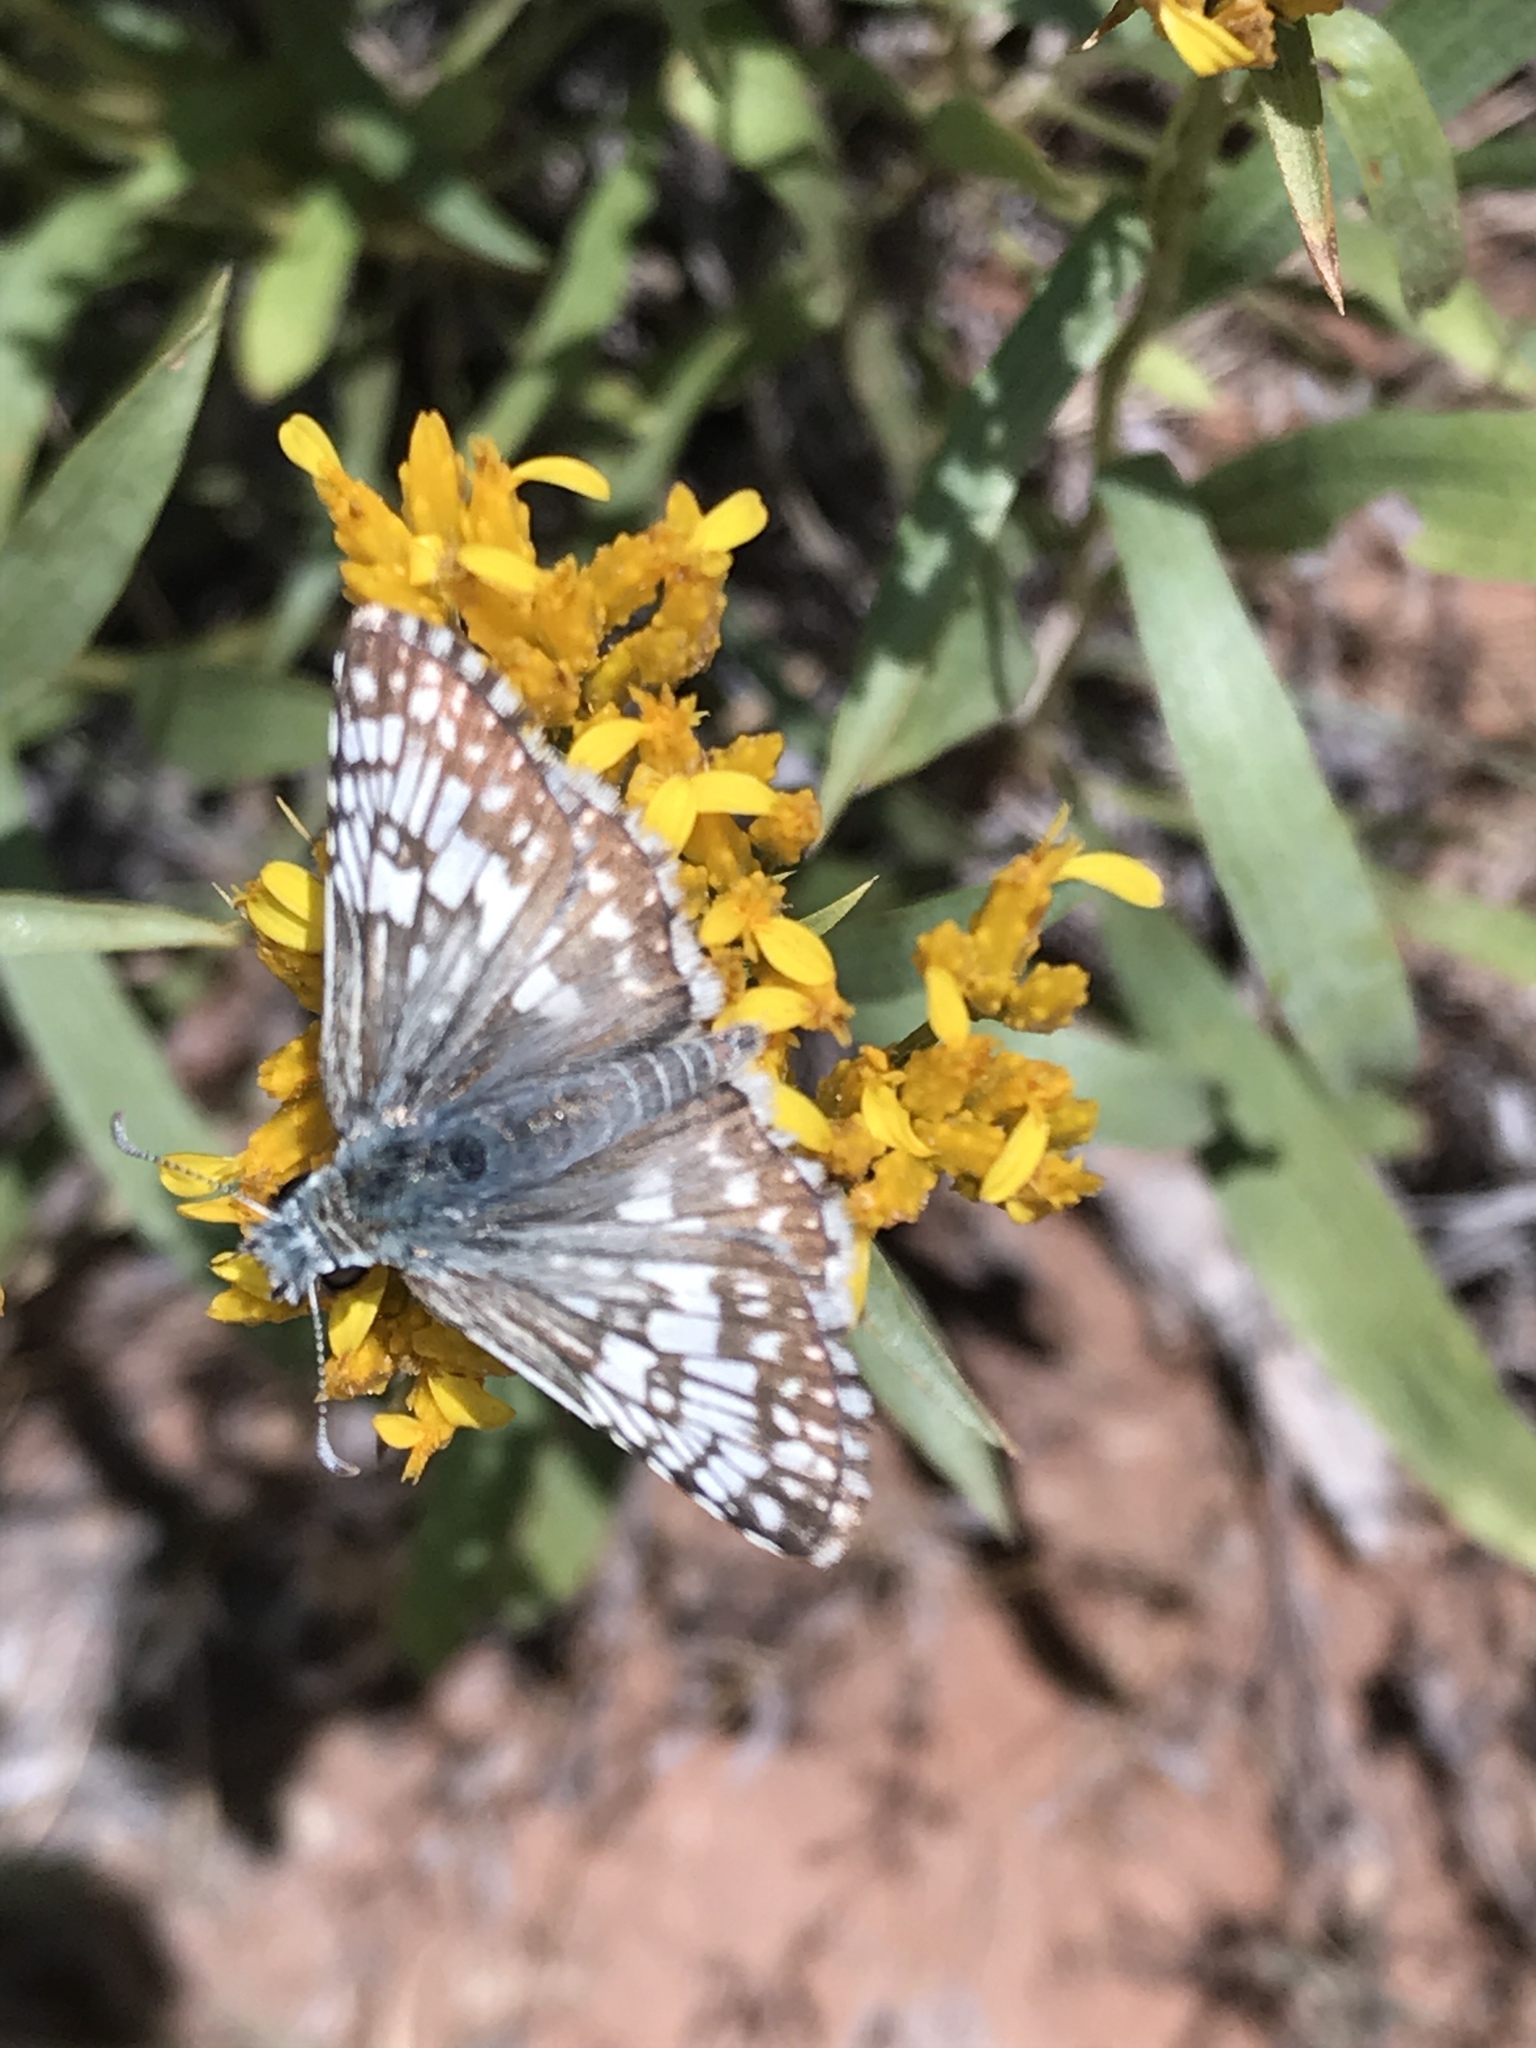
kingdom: Animalia
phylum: Arthropoda
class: Insecta
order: Lepidoptera
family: Hesperiidae
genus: Burnsius
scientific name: Burnsius communis
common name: Common checkered-skipper
